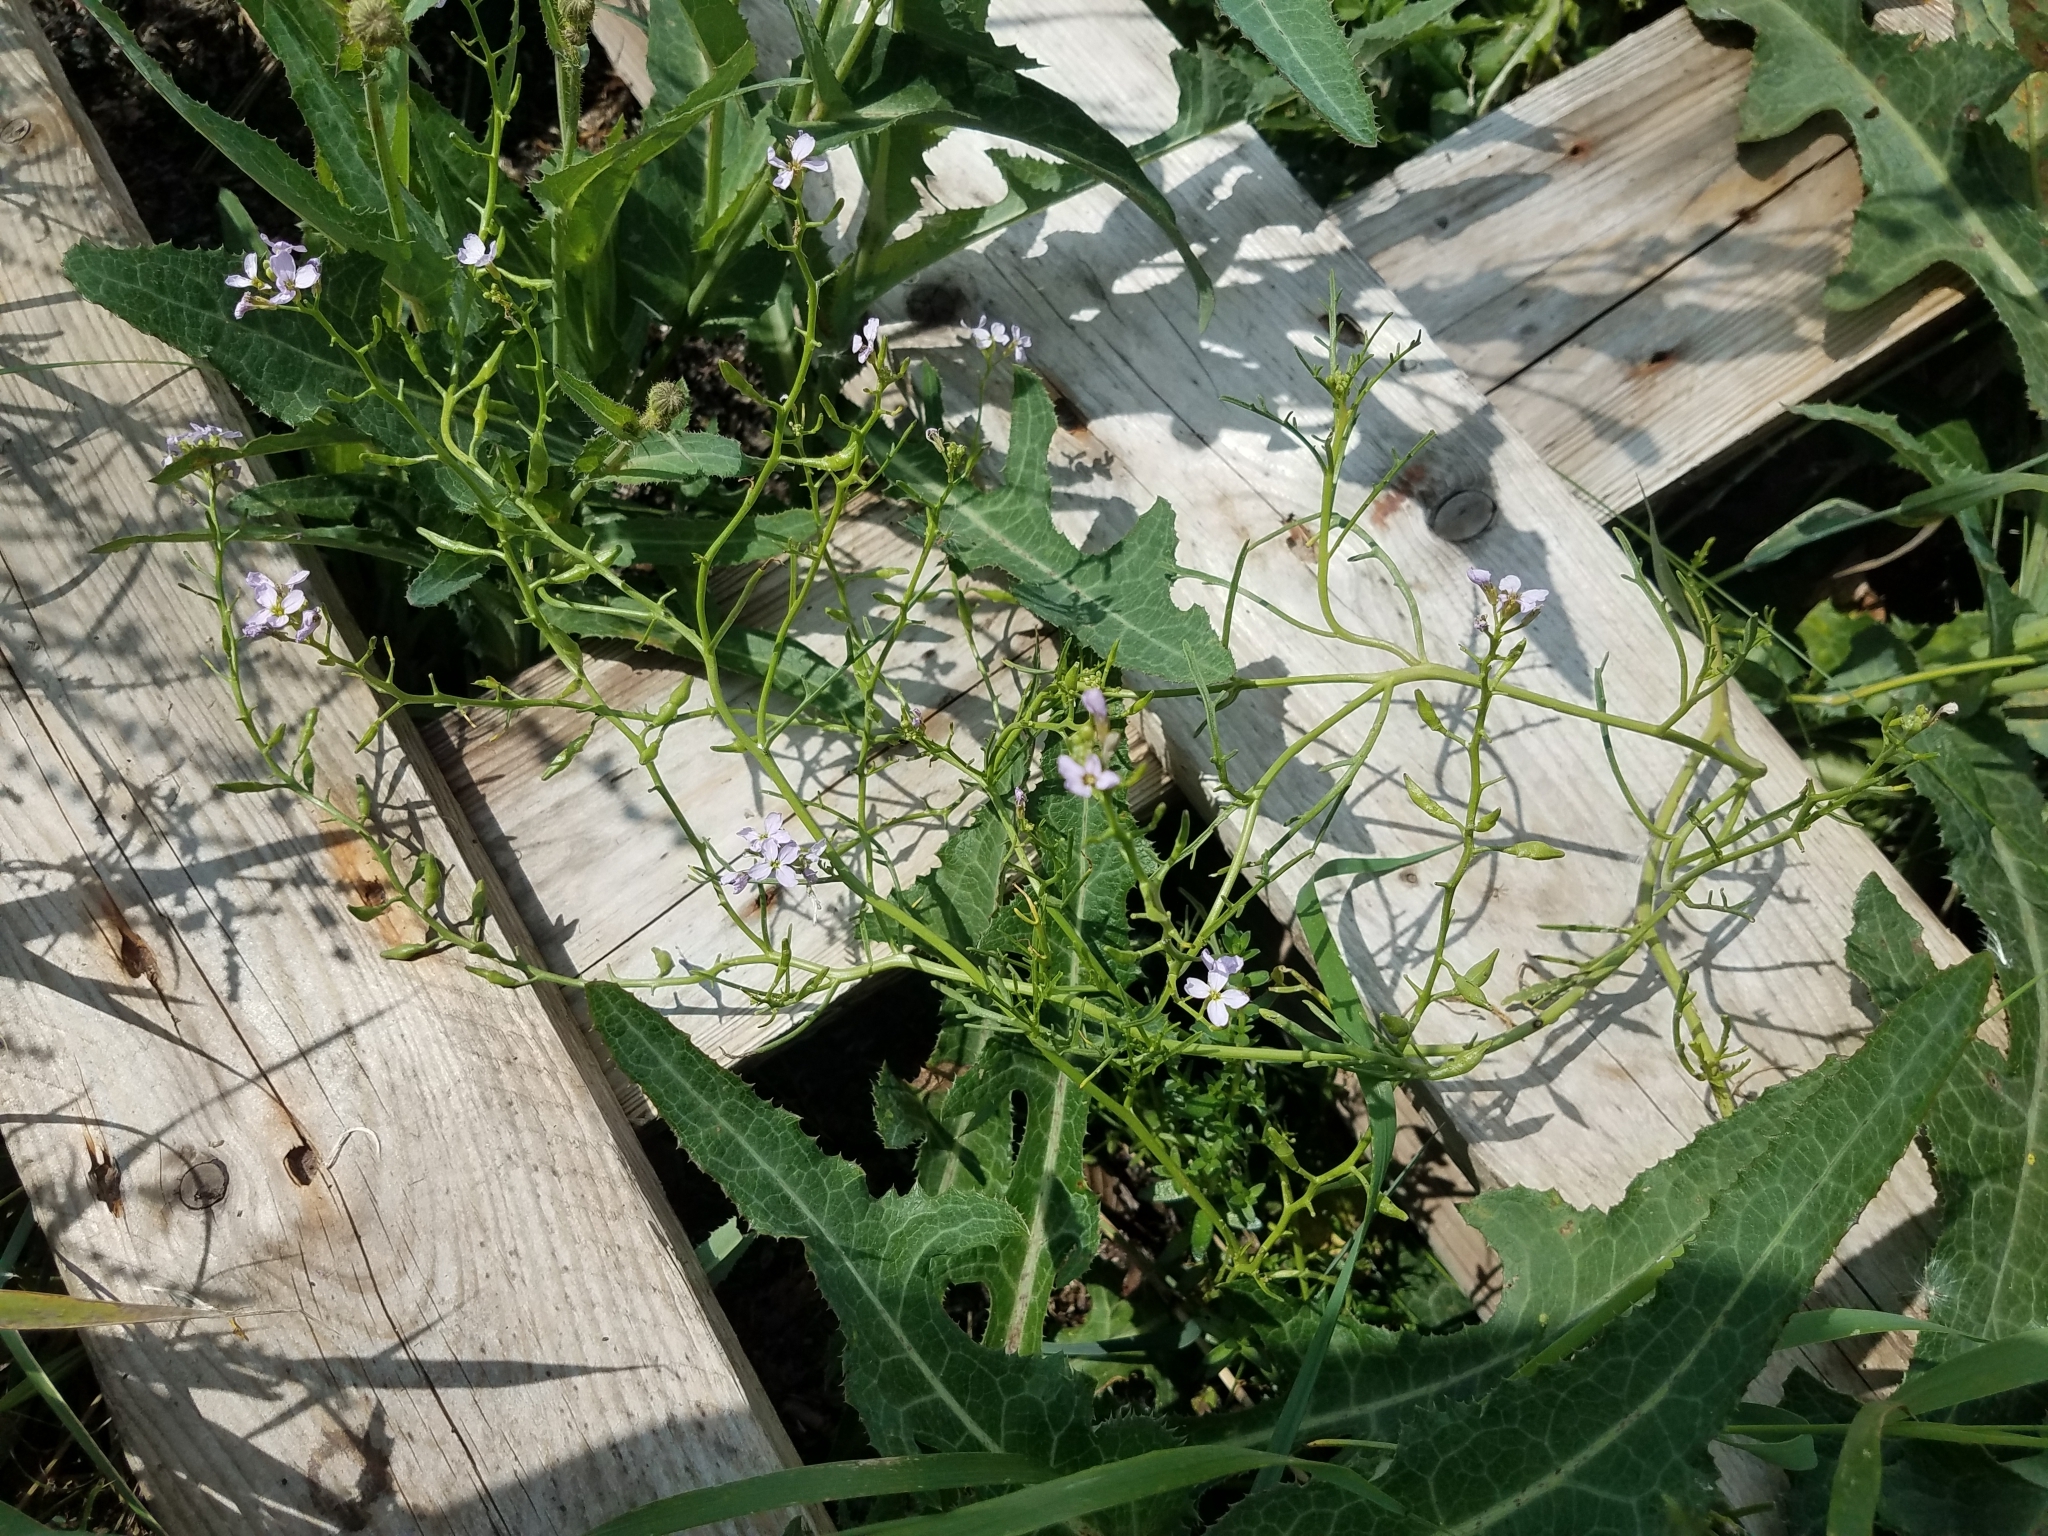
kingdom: Plantae
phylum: Tracheophyta
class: Magnoliopsida
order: Brassicales
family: Brassicaceae
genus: Cakile
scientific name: Cakile maritima
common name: Sea rocket
